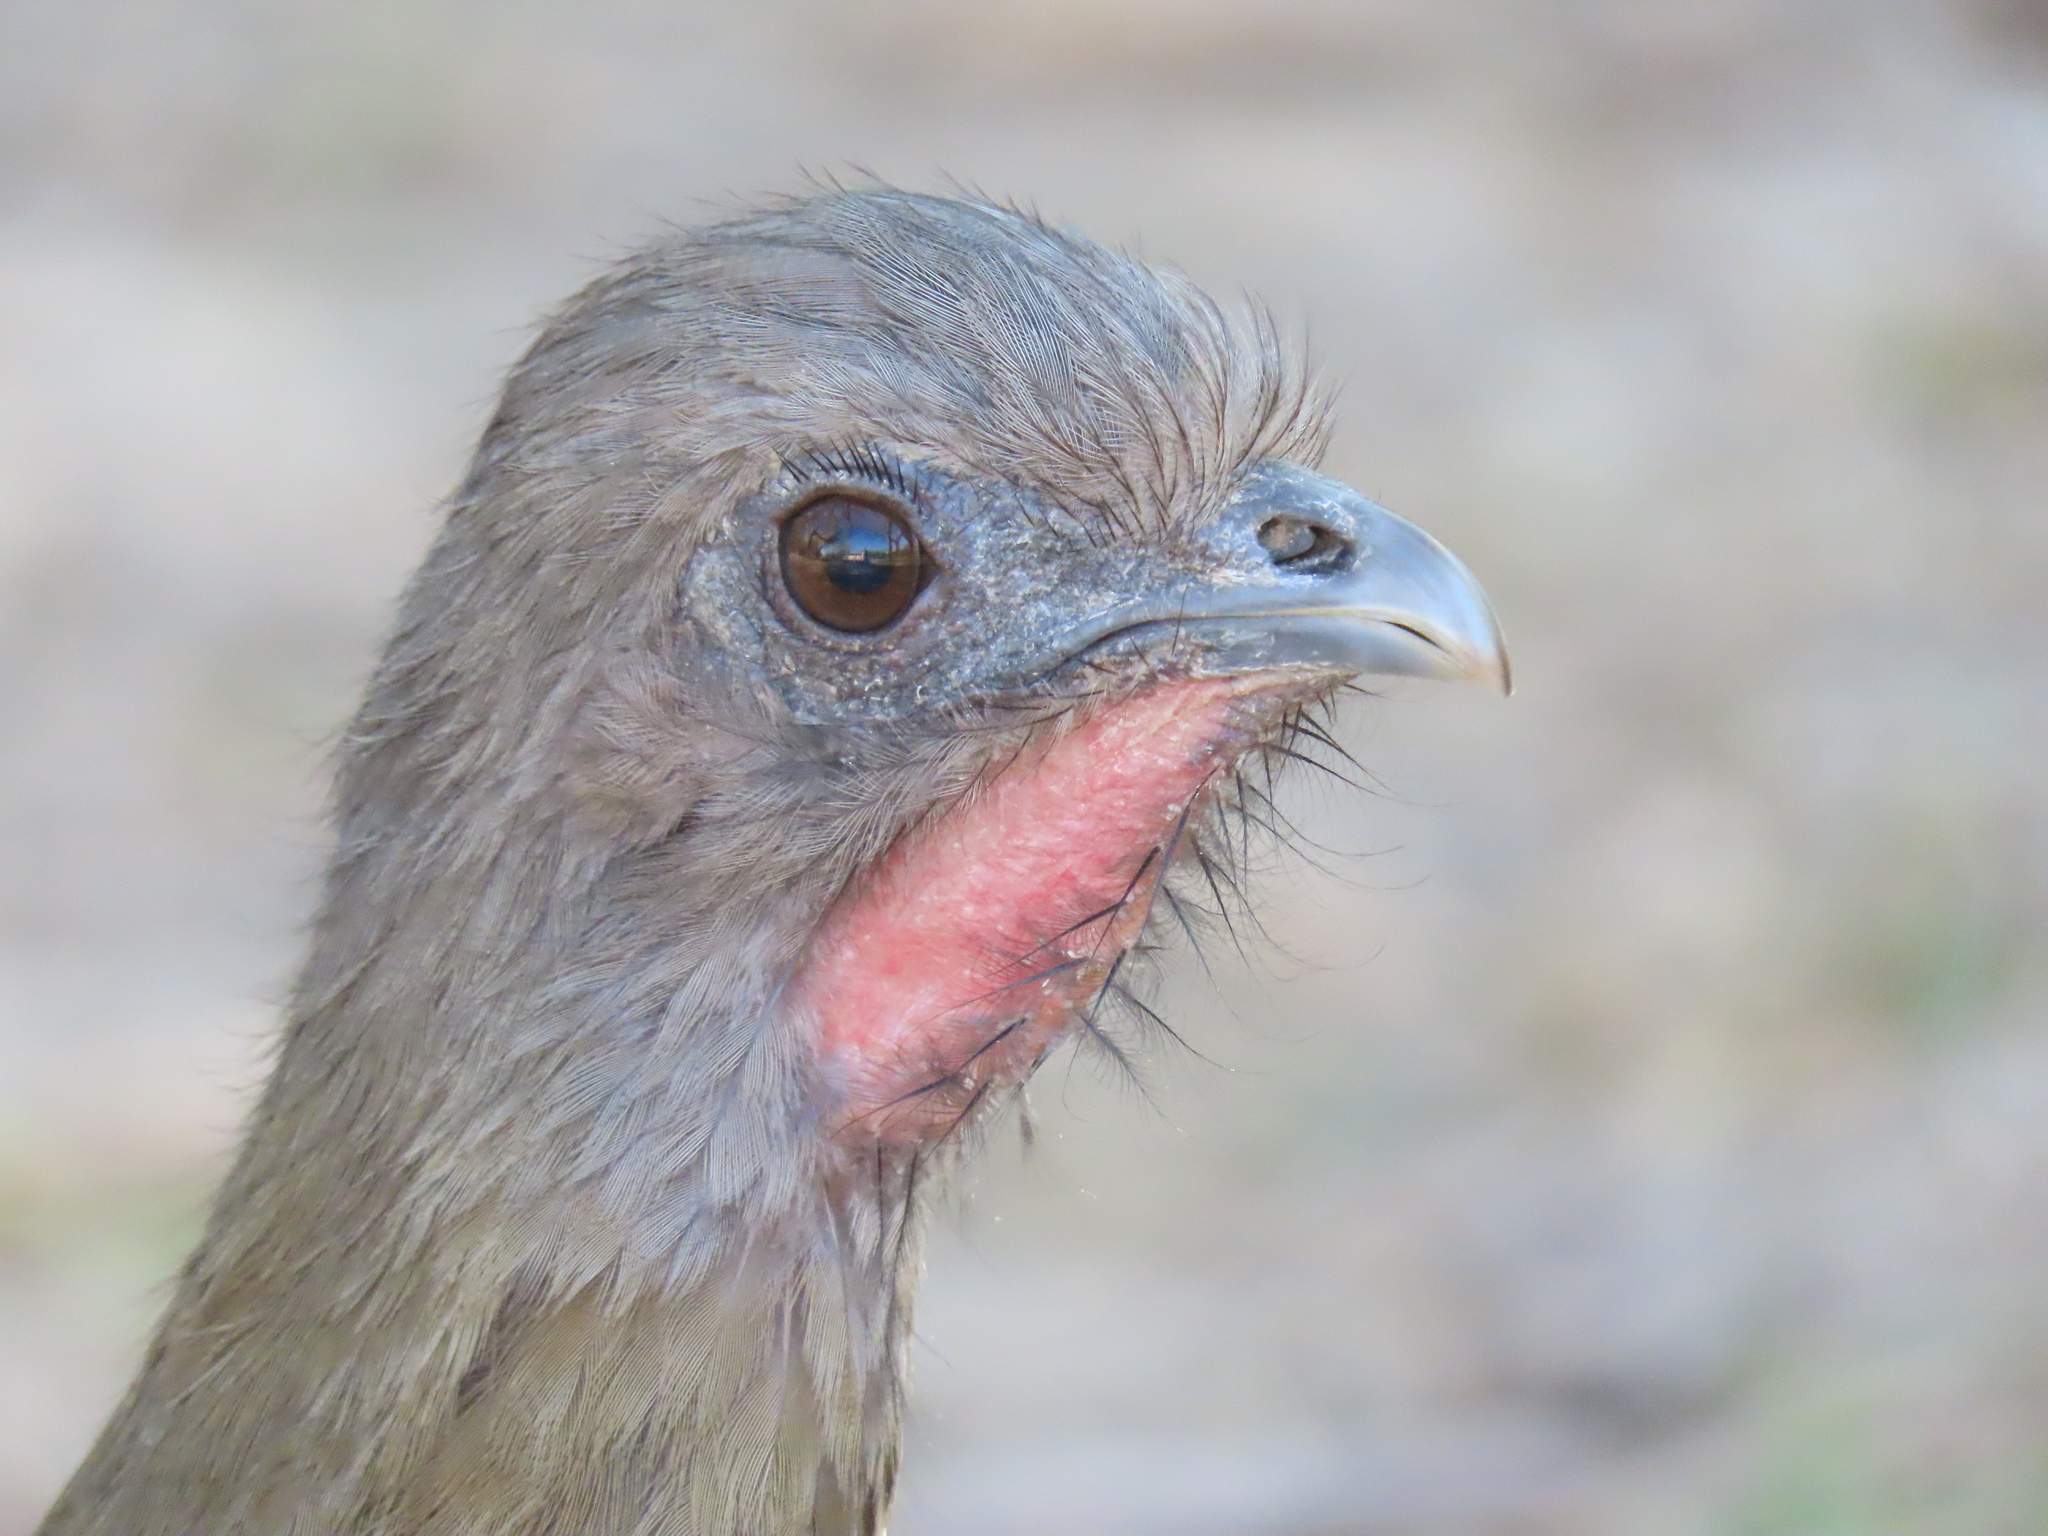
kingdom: Animalia
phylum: Chordata
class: Aves
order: Galliformes
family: Cracidae
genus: Ortalis
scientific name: Ortalis vetula
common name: Plain chachalaca
